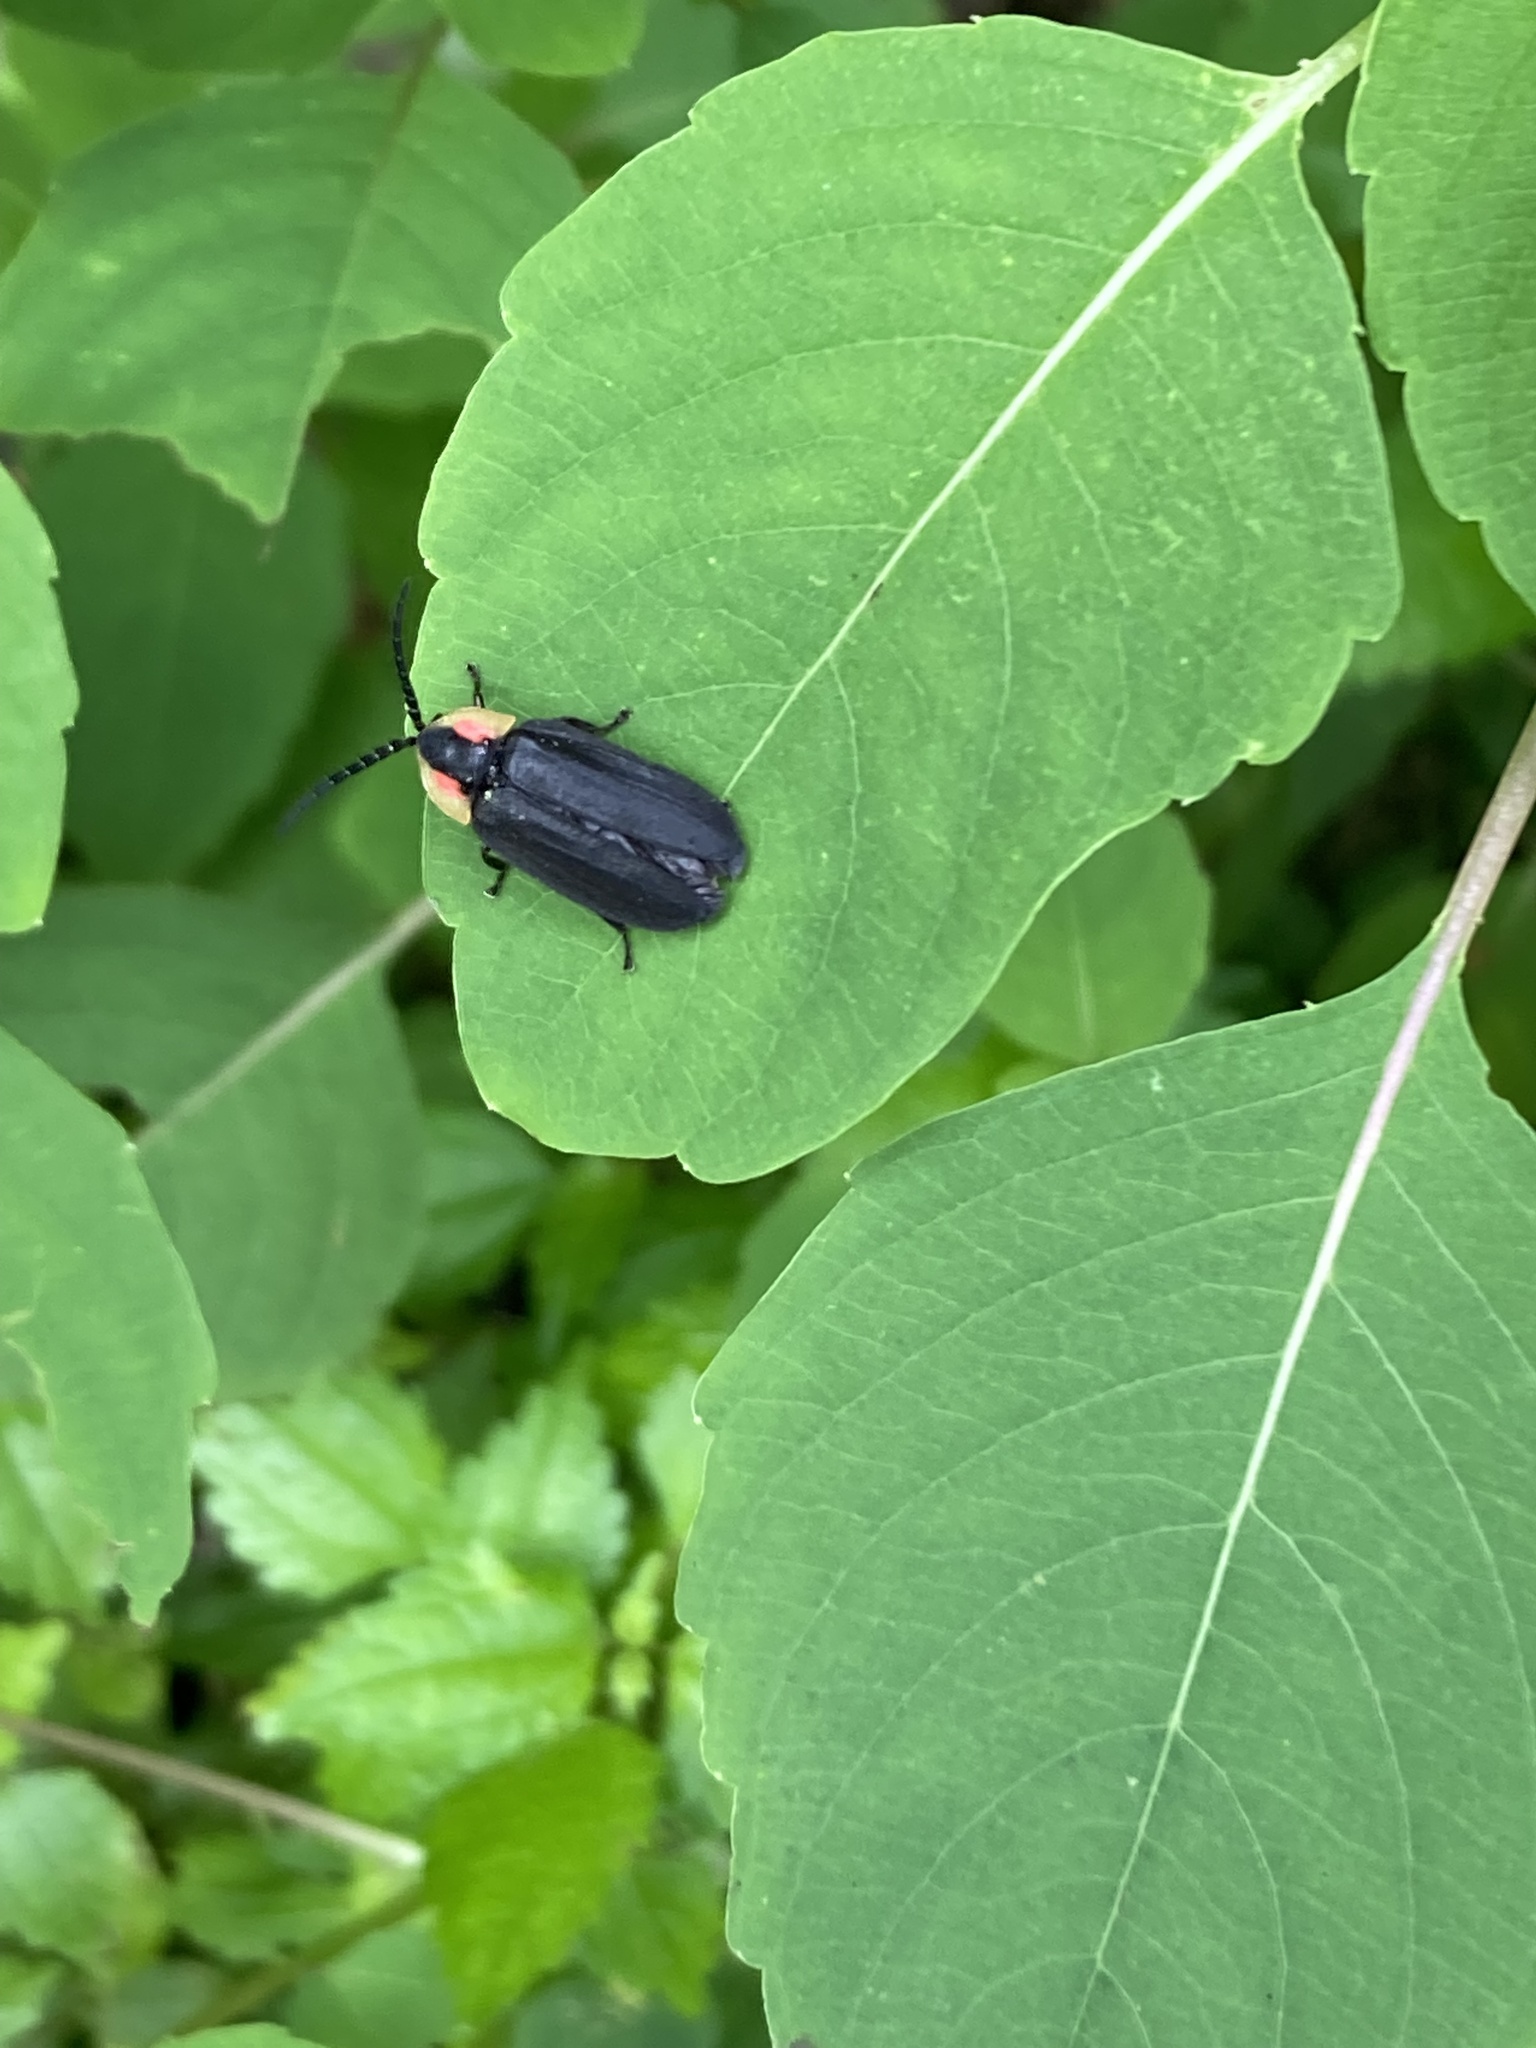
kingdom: Animalia
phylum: Arthropoda
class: Insecta
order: Coleoptera
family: Lampyridae
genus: Lucidota
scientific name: Lucidota atra
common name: Black firefly
